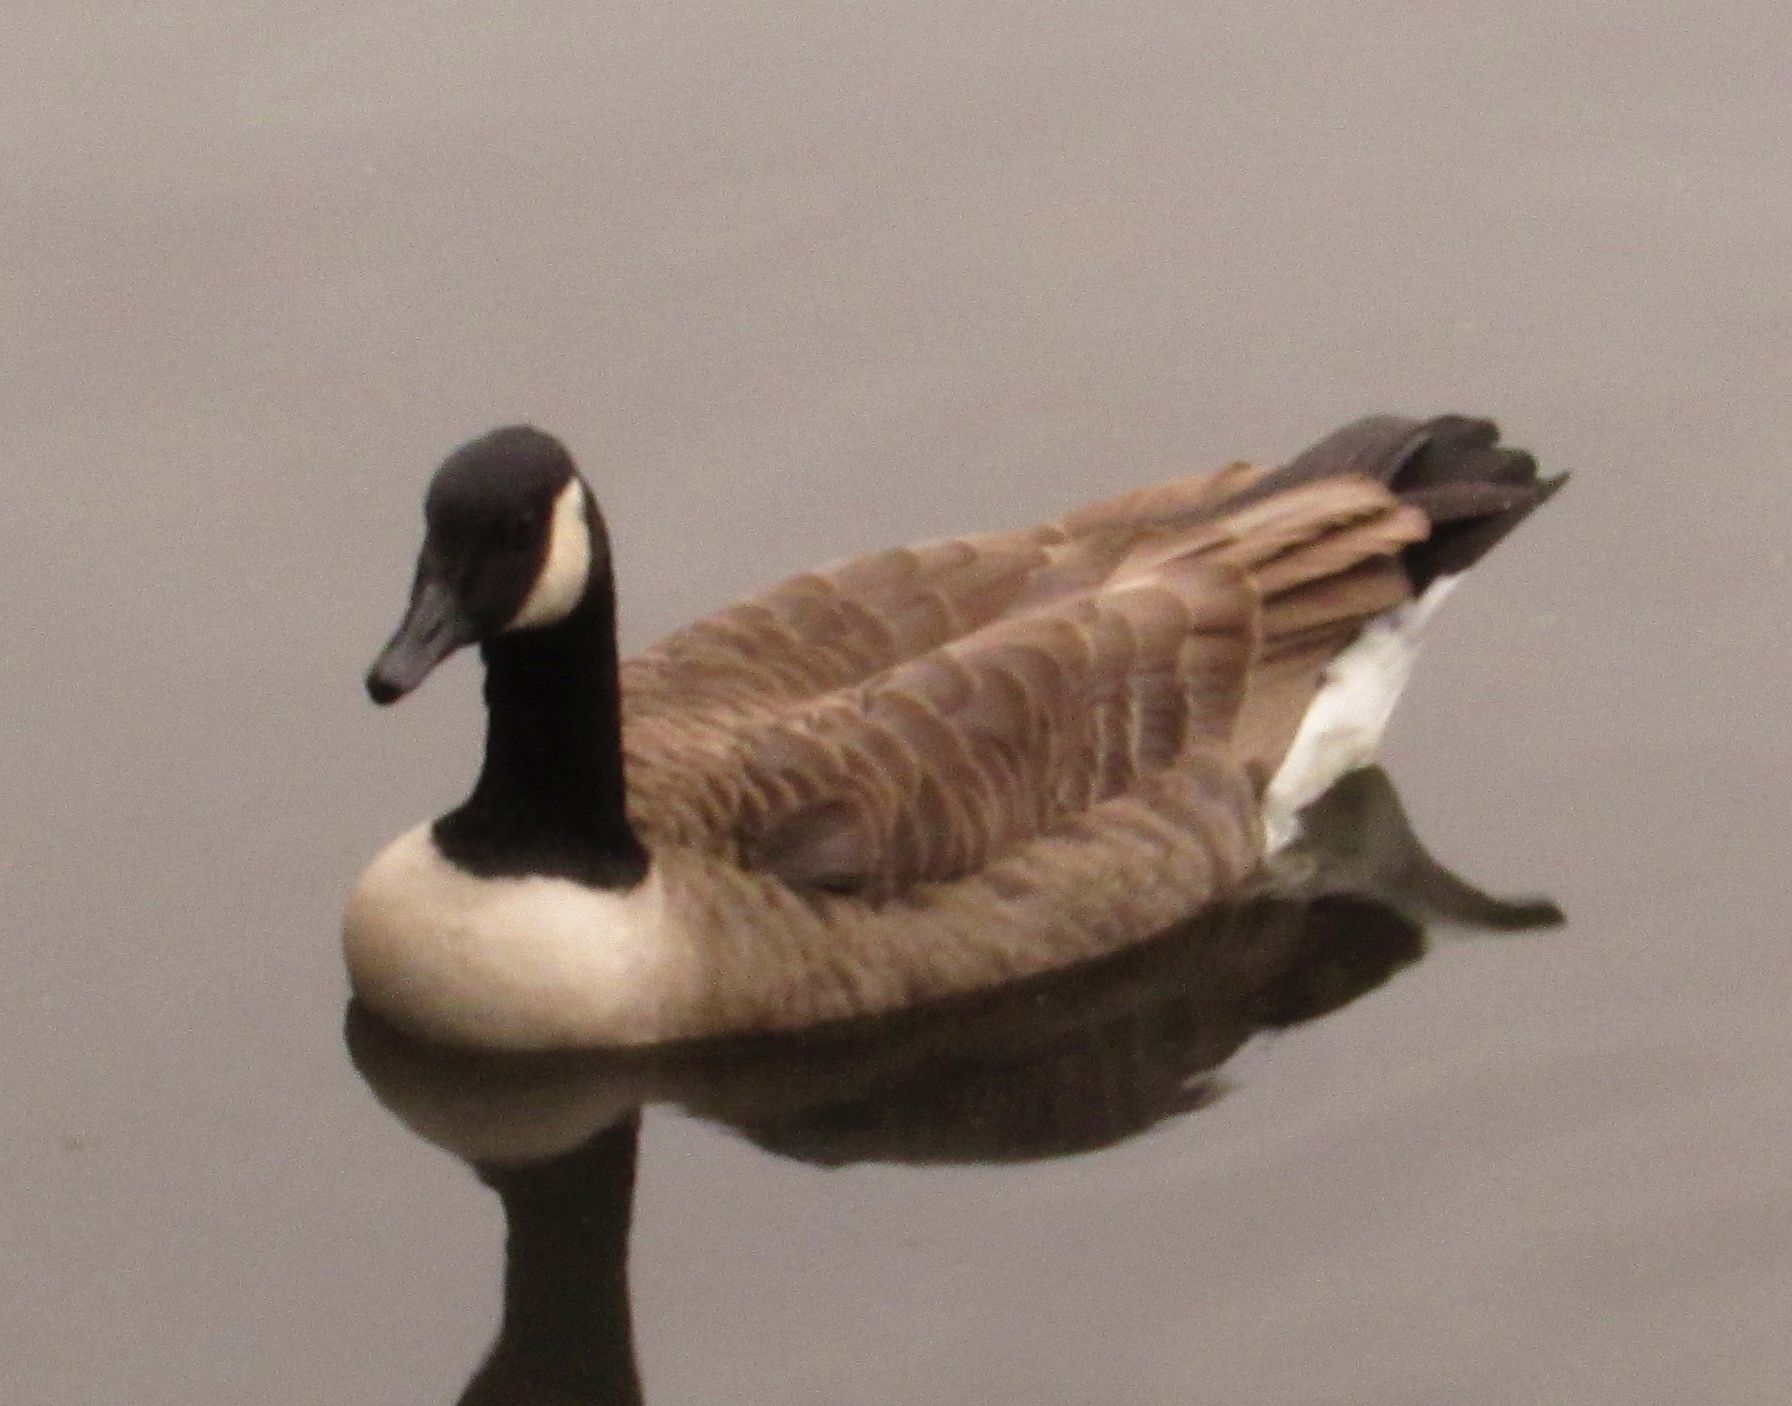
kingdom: Animalia
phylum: Chordata
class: Aves
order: Anseriformes
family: Anatidae
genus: Branta
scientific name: Branta canadensis
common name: Canada goose
